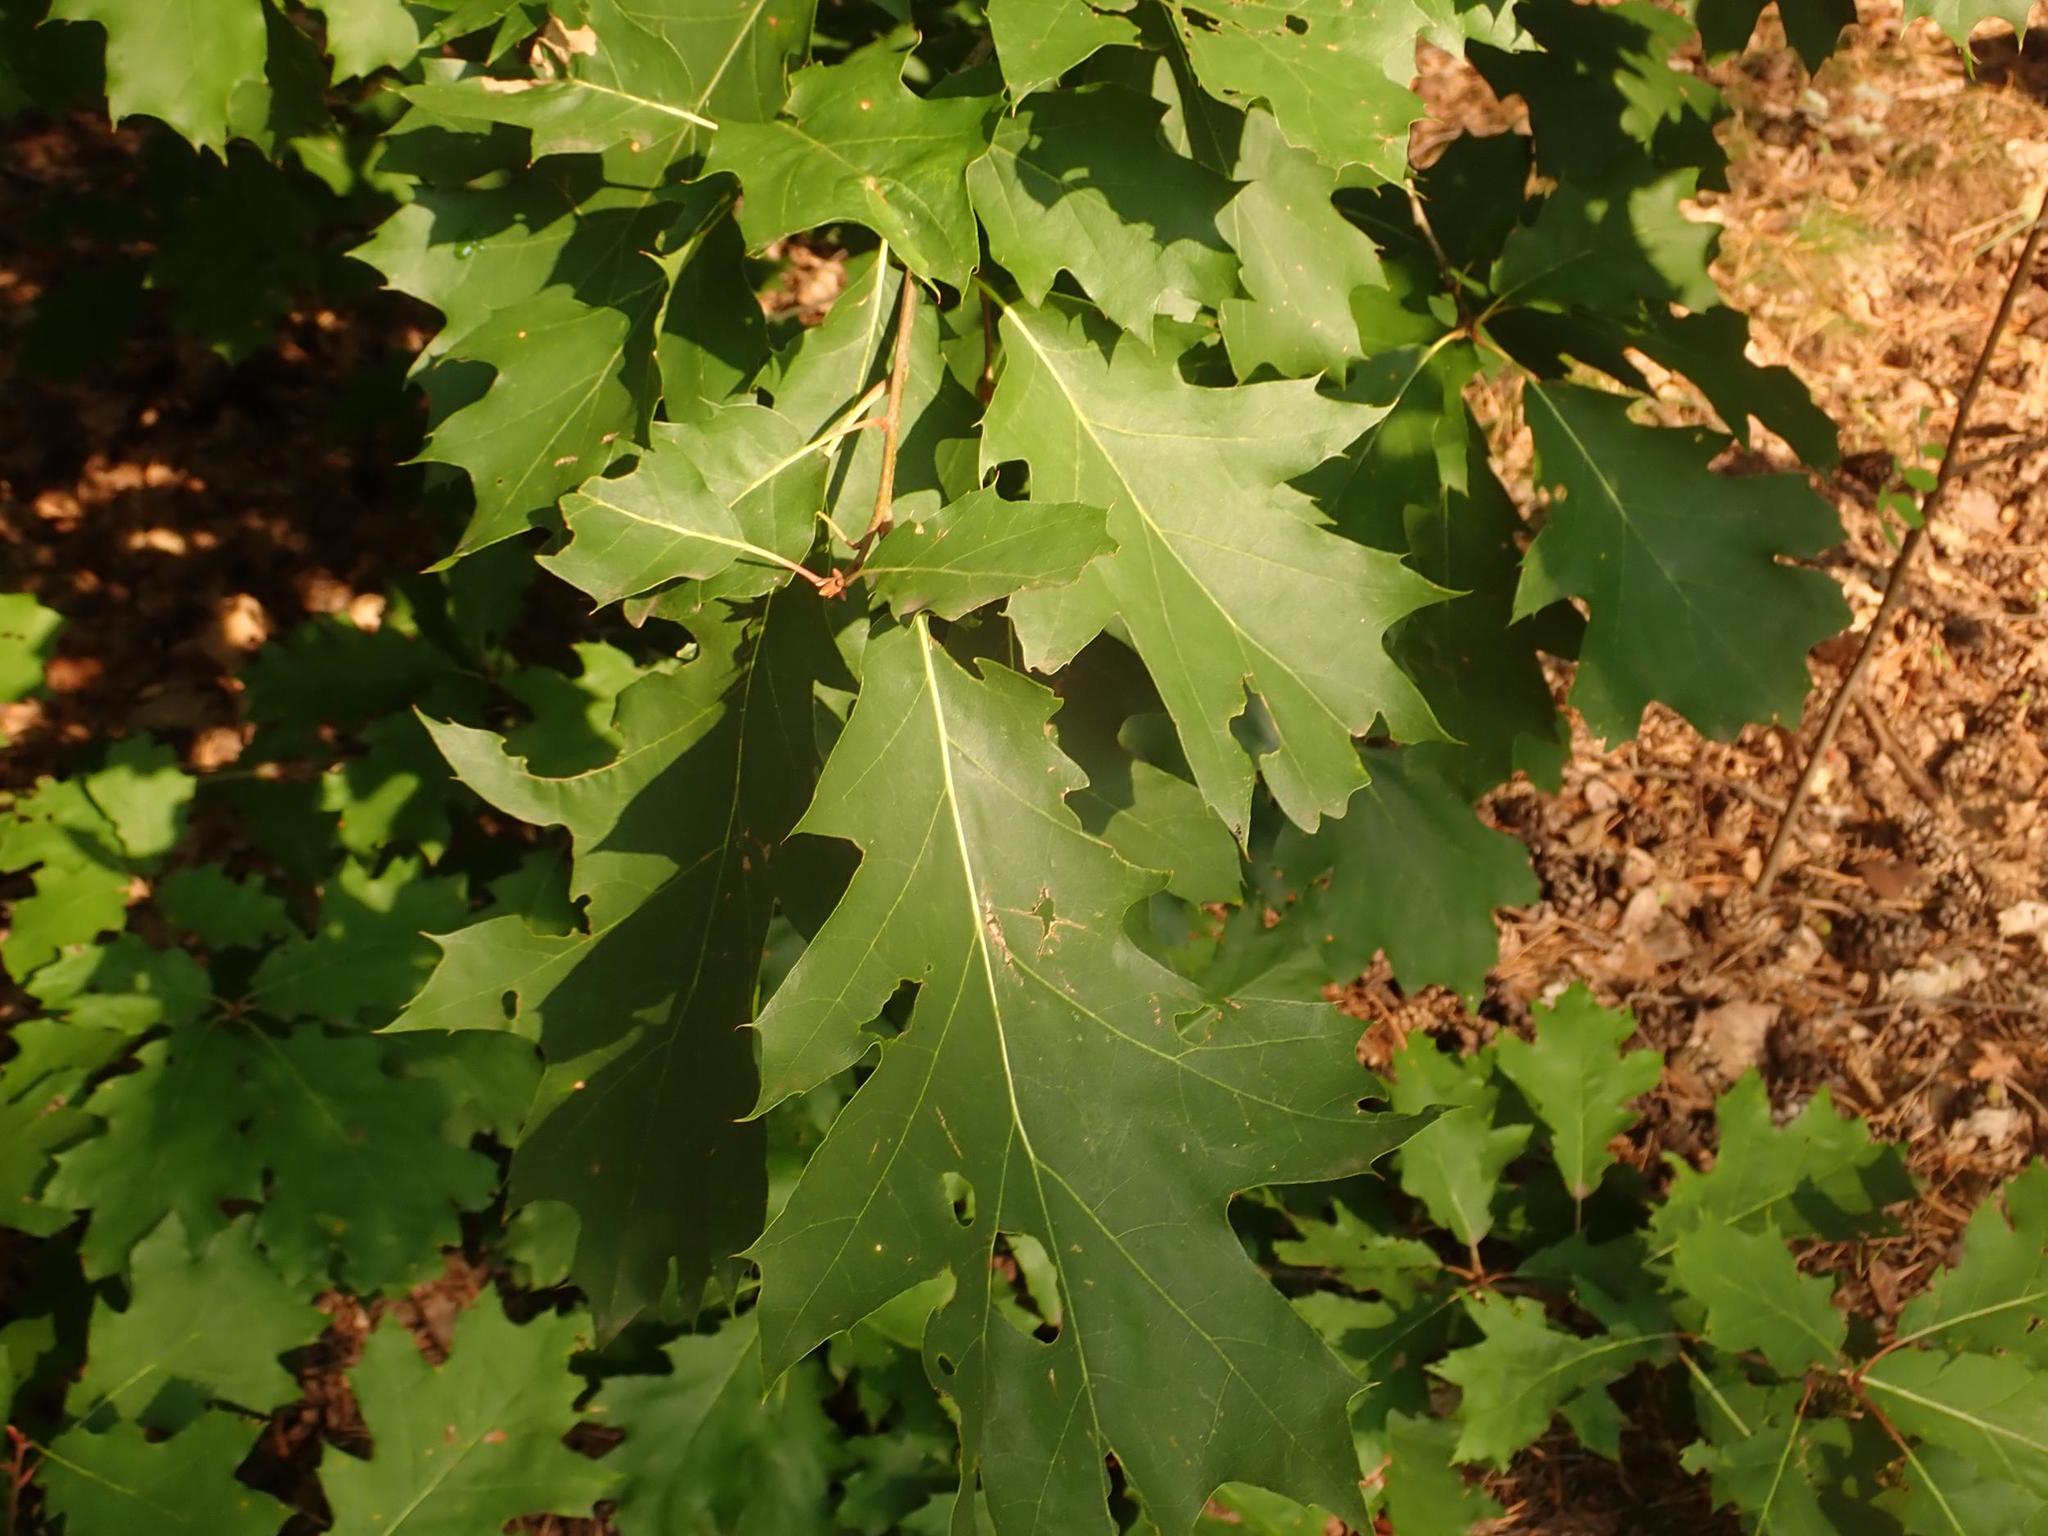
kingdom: Plantae
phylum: Tracheophyta
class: Magnoliopsida
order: Fagales
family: Fagaceae
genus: Quercus
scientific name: Quercus rubra
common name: Red oak
